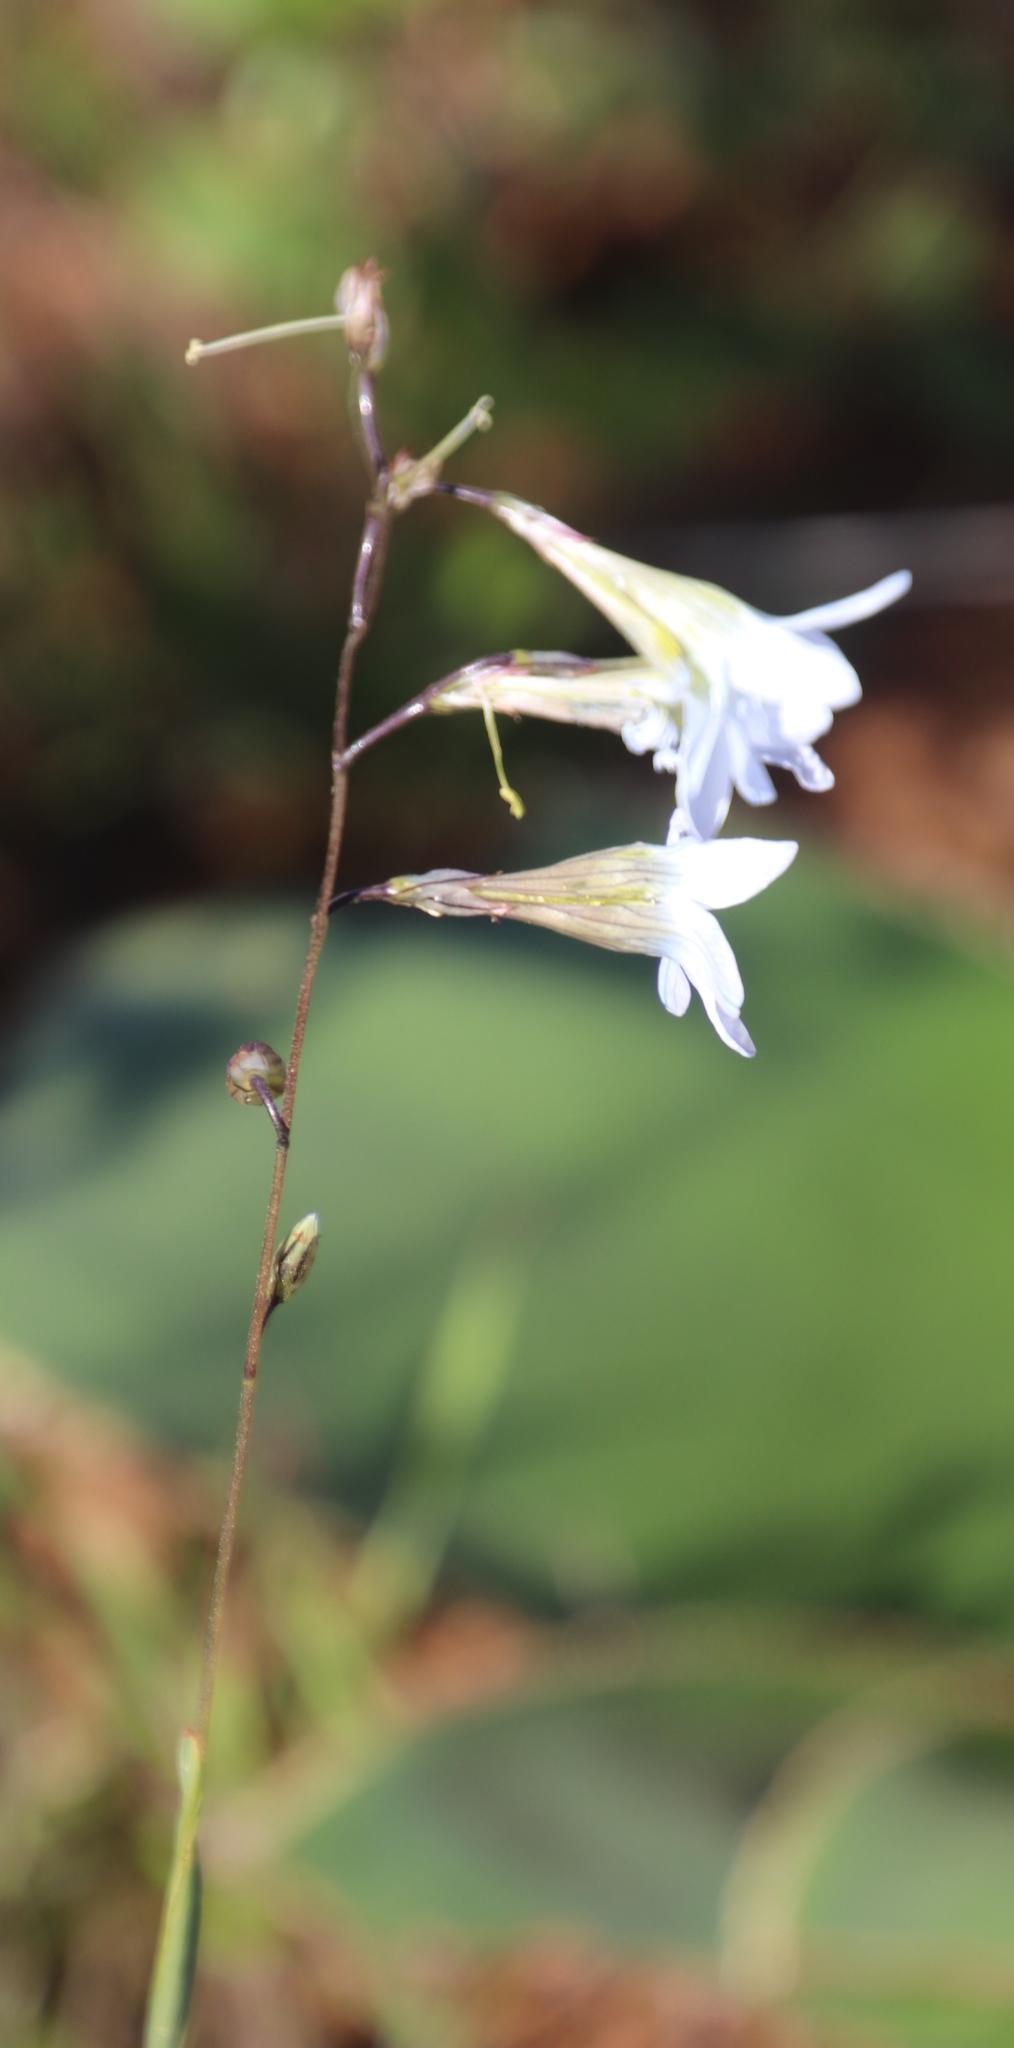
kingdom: Plantae
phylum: Tracheophyta
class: Liliopsida
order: Asparagales
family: Iridaceae
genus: Ixia
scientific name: Ixia rapunculoides
